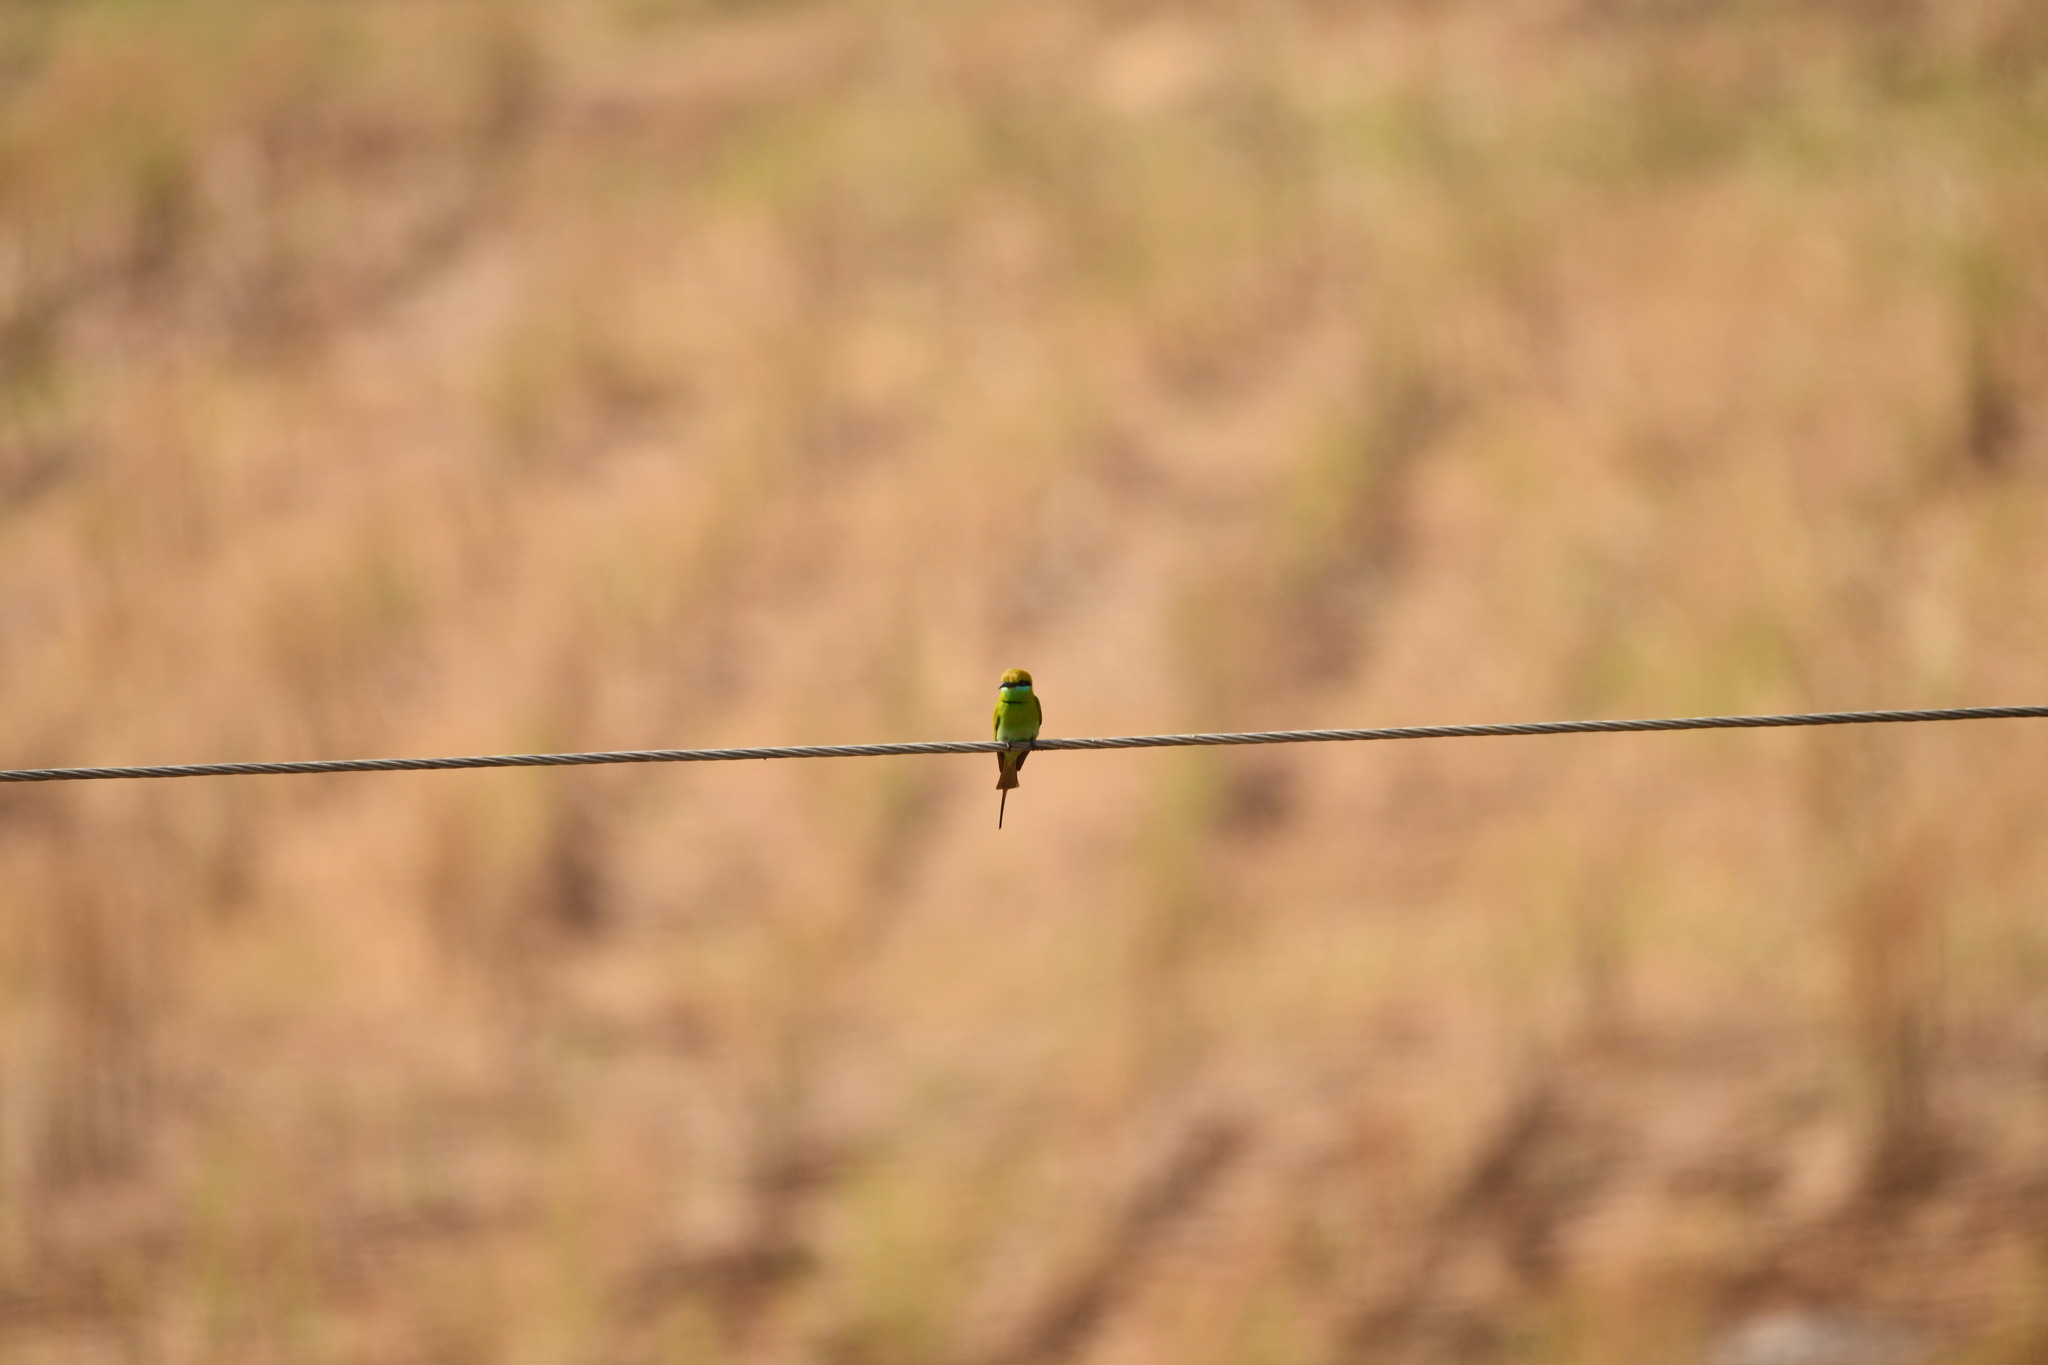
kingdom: Animalia
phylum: Chordata
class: Aves
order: Coraciiformes
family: Meropidae
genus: Merops
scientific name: Merops orientalis
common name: Green bee-eater
